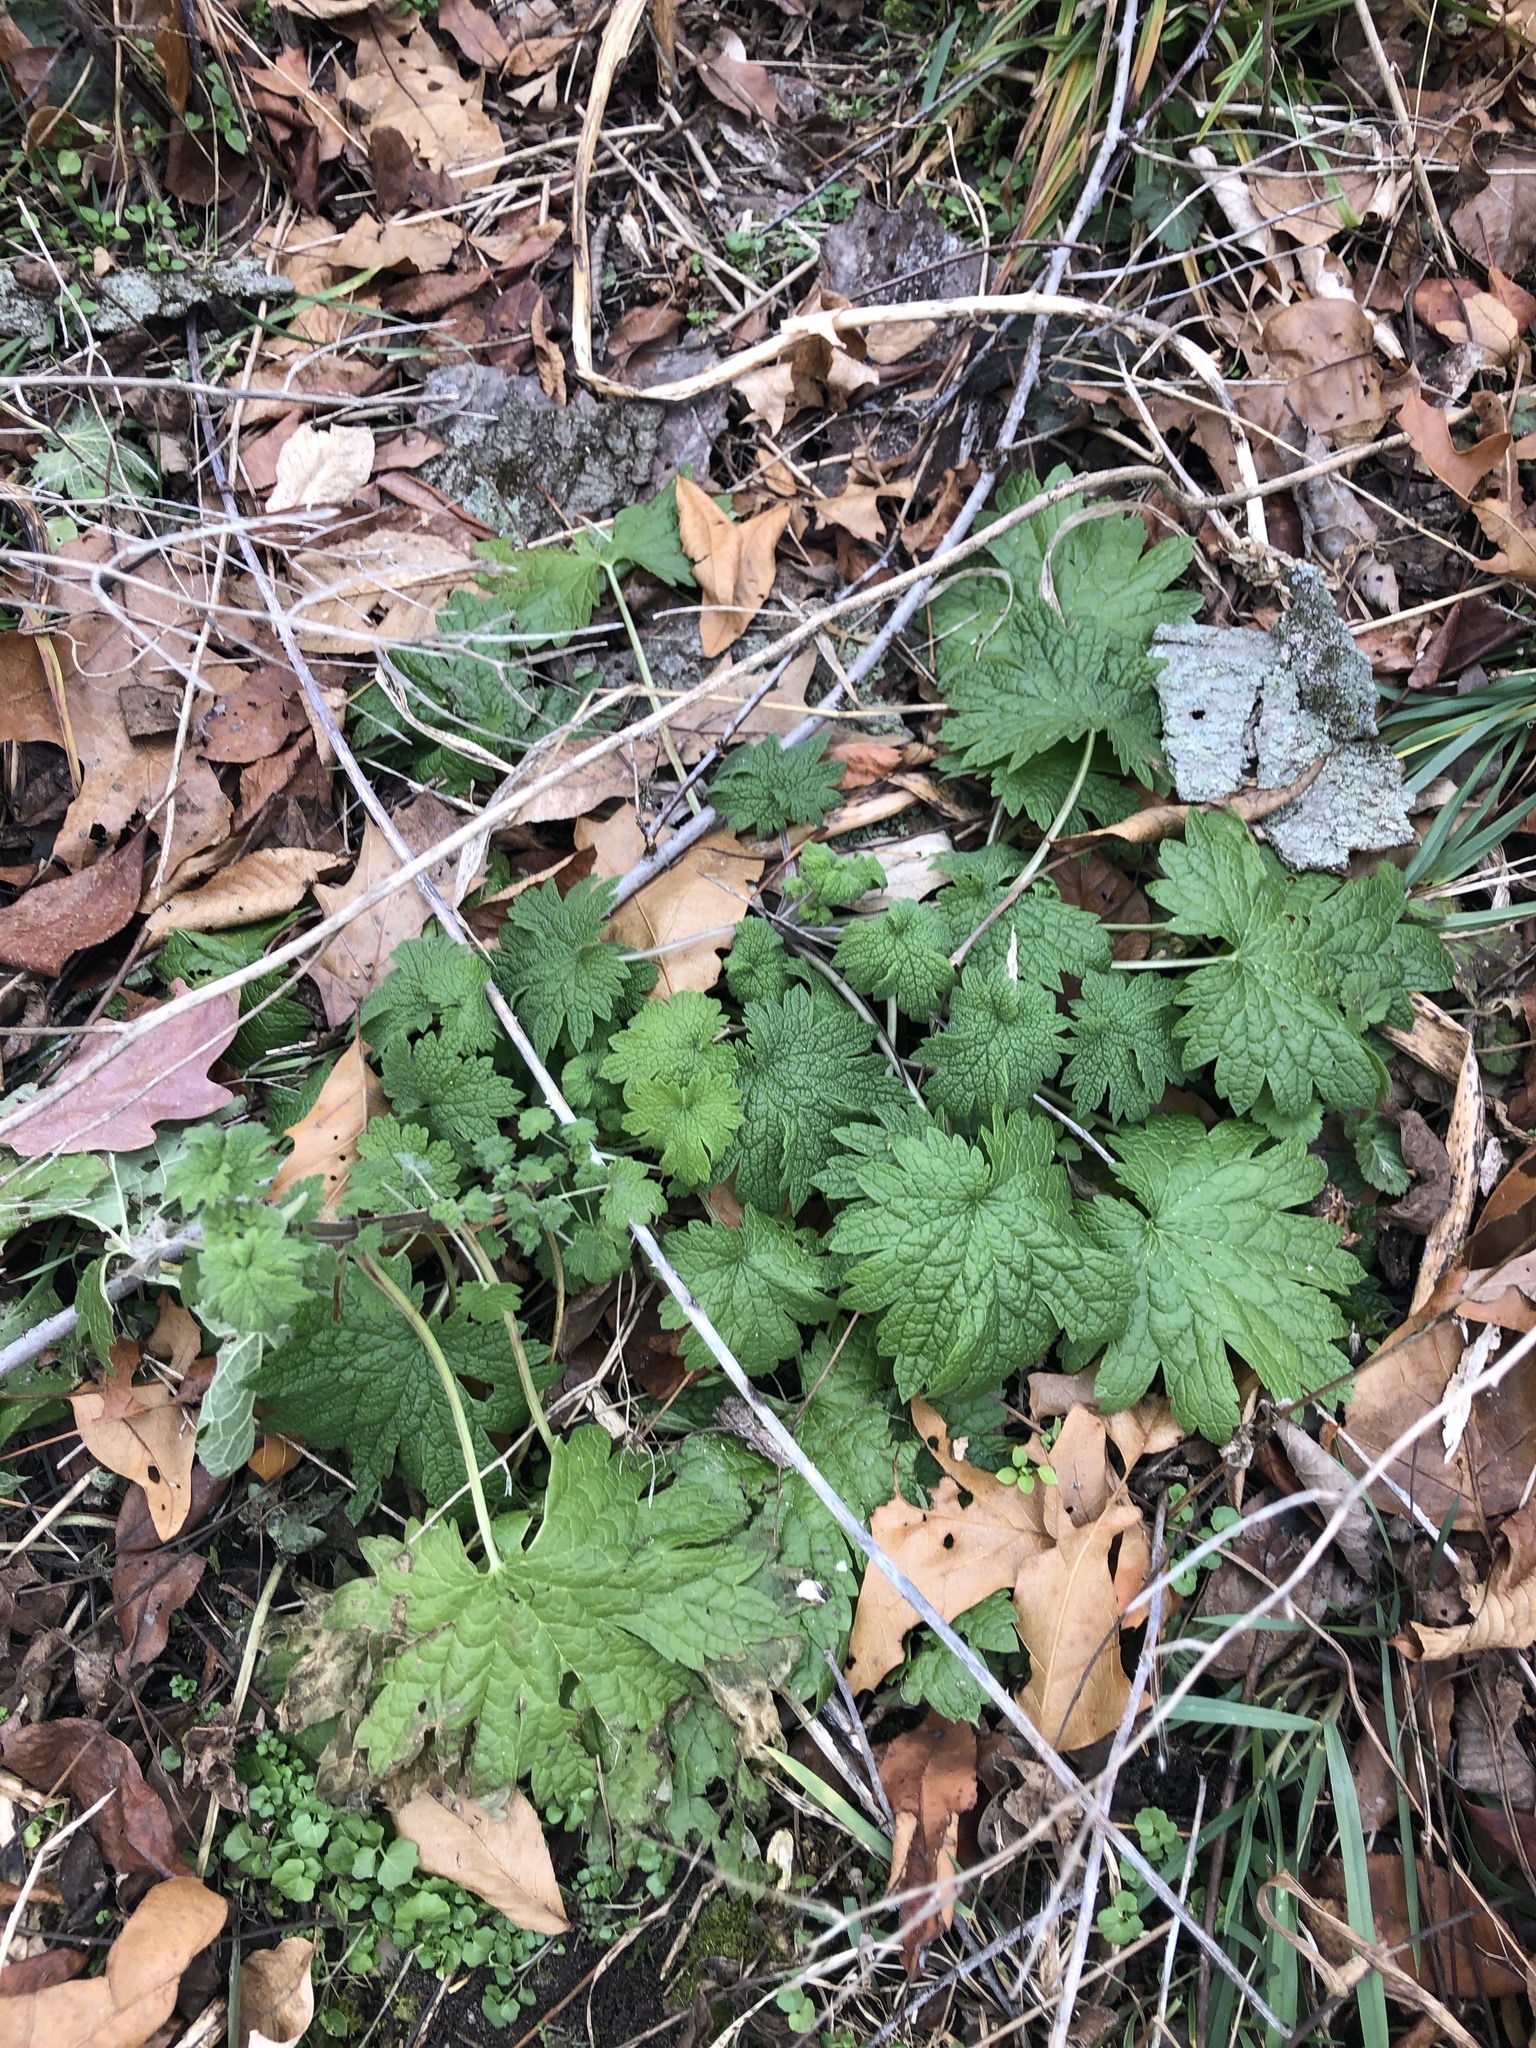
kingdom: Plantae
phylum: Tracheophyta
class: Magnoliopsida
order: Lamiales
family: Lamiaceae
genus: Leonurus
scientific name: Leonurus cardiaca
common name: Motherwort
